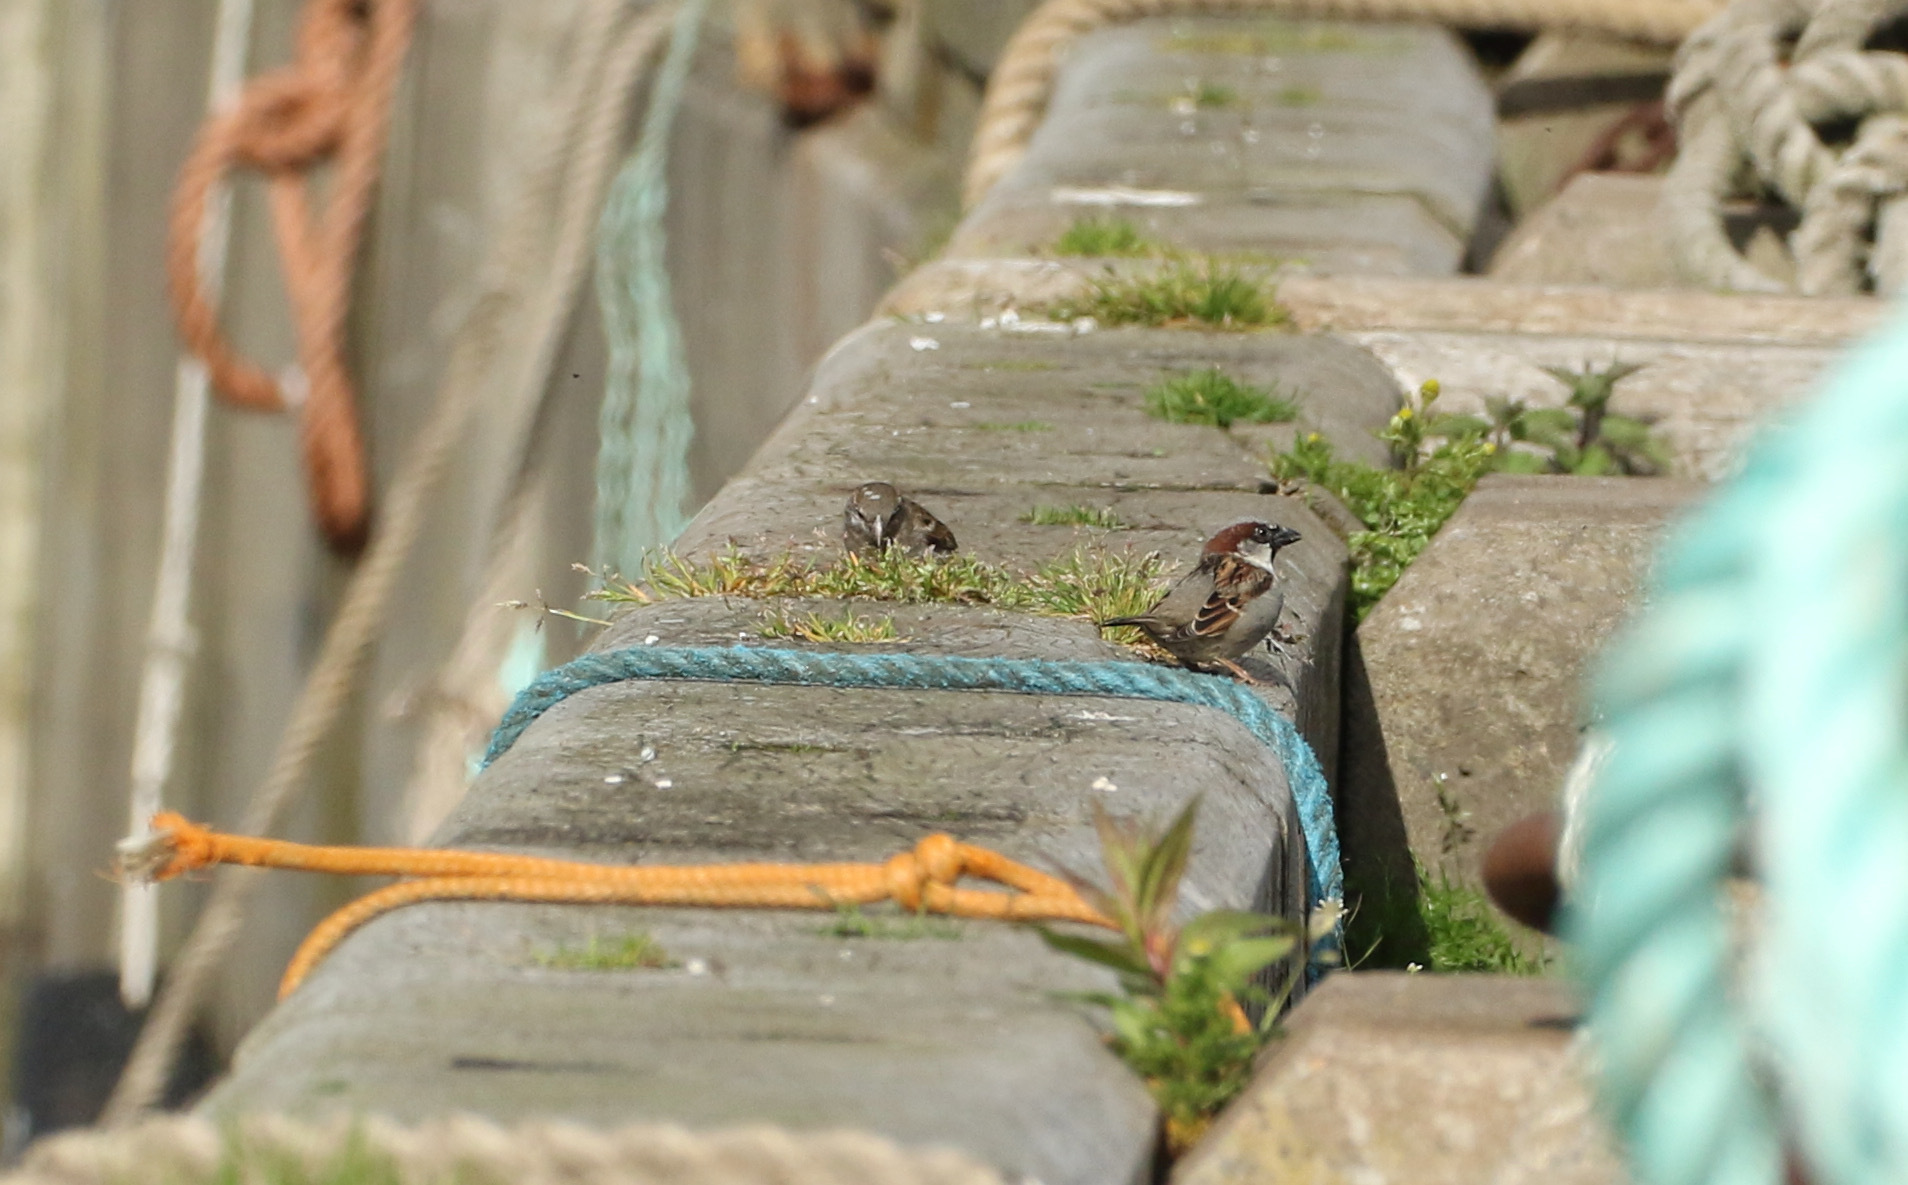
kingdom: Animalia
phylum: Chordata
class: Aves
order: Passeriformes
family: Passeridae
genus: Passer
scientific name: Passer domesticus
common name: House sparrow
